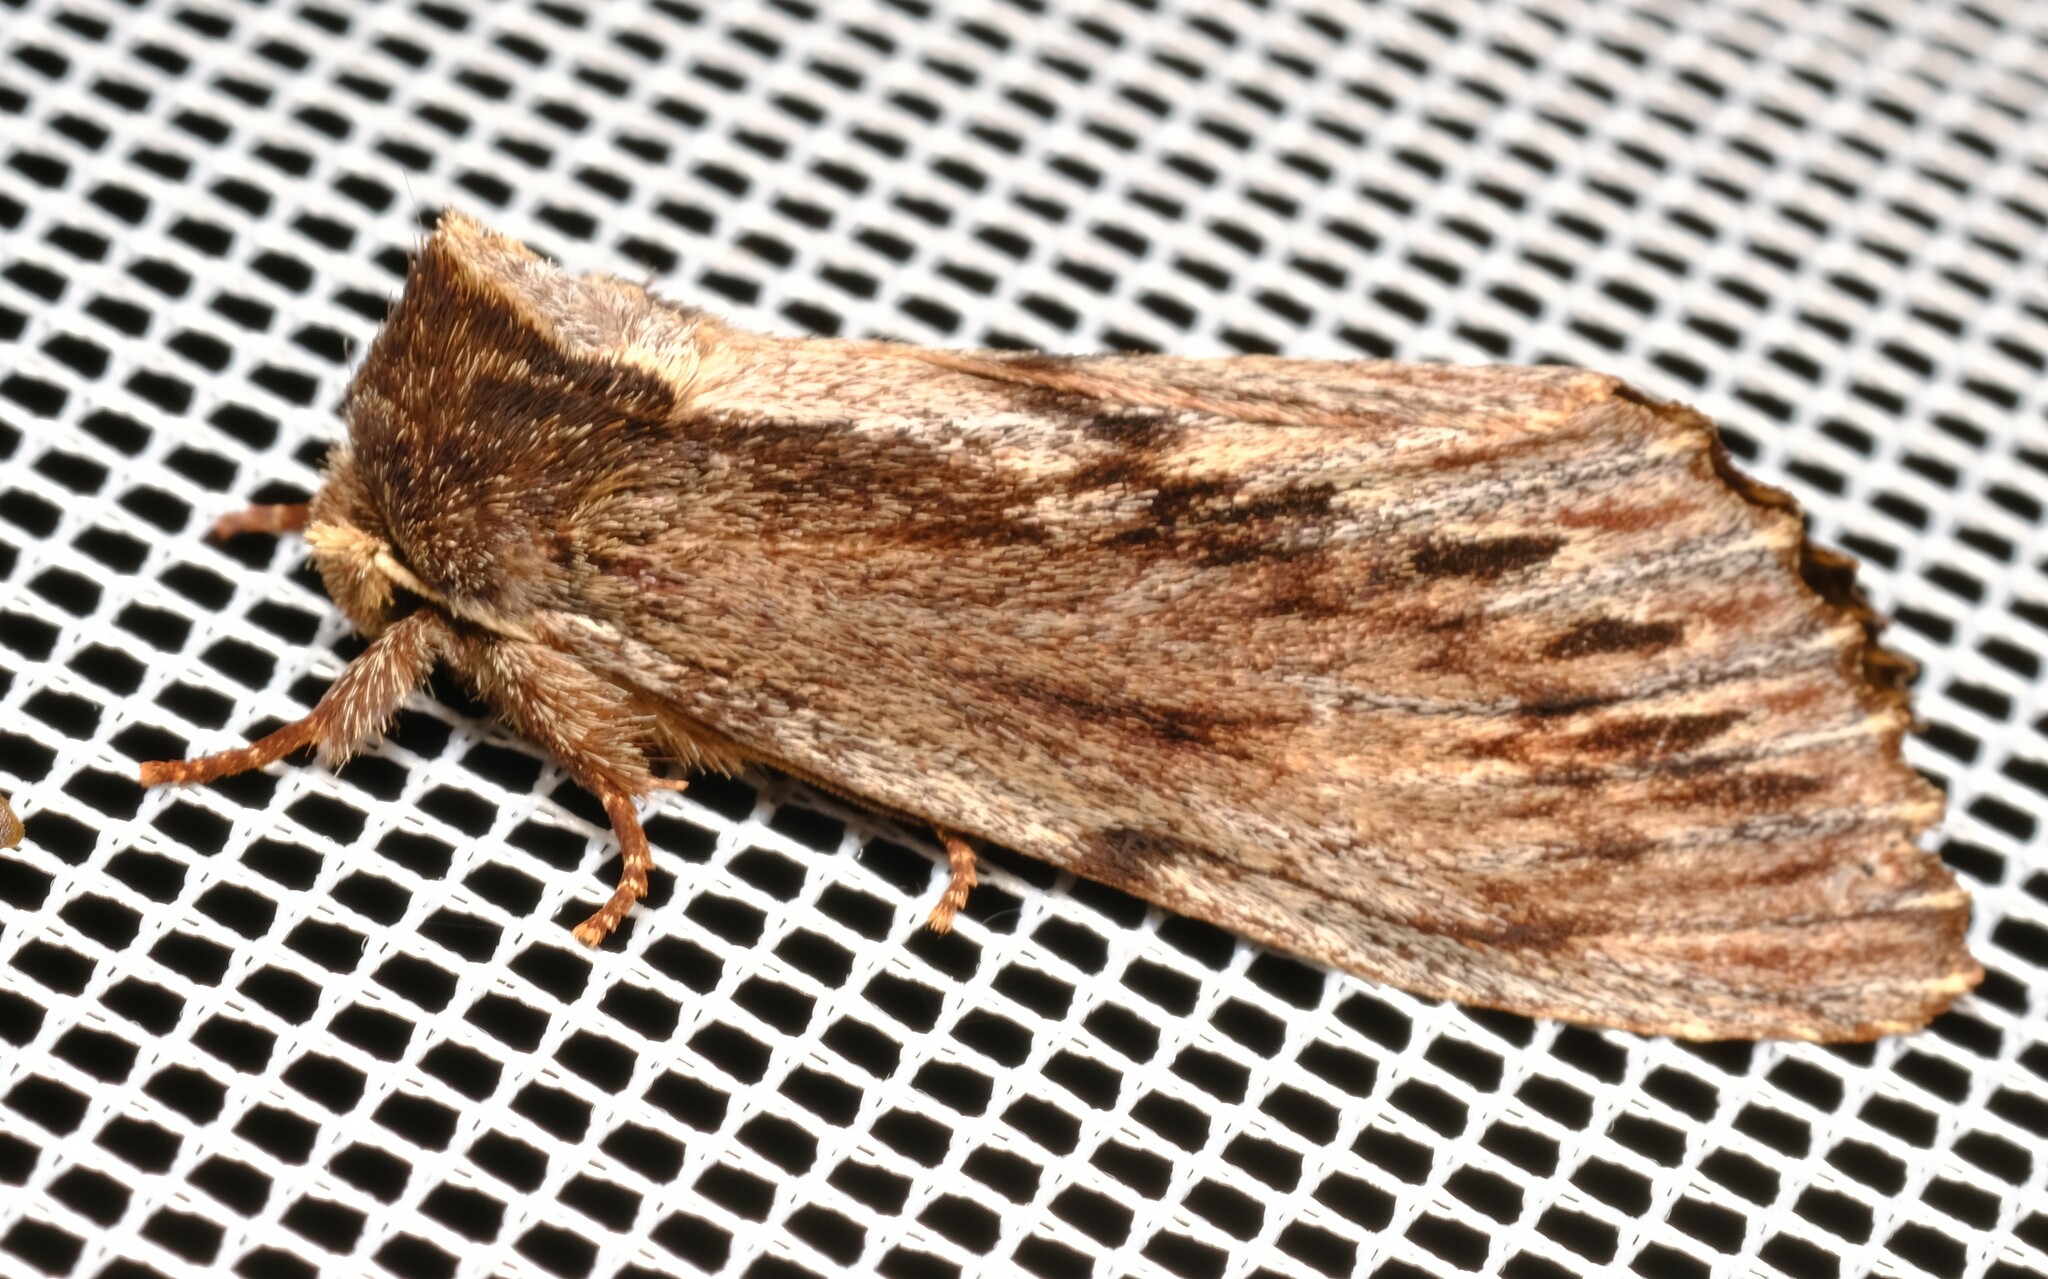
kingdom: Animalia
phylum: Arthropoda
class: Insecta
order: Lepidoptera
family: Notodontidae
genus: Hylaeora
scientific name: Hylaeora capucina
